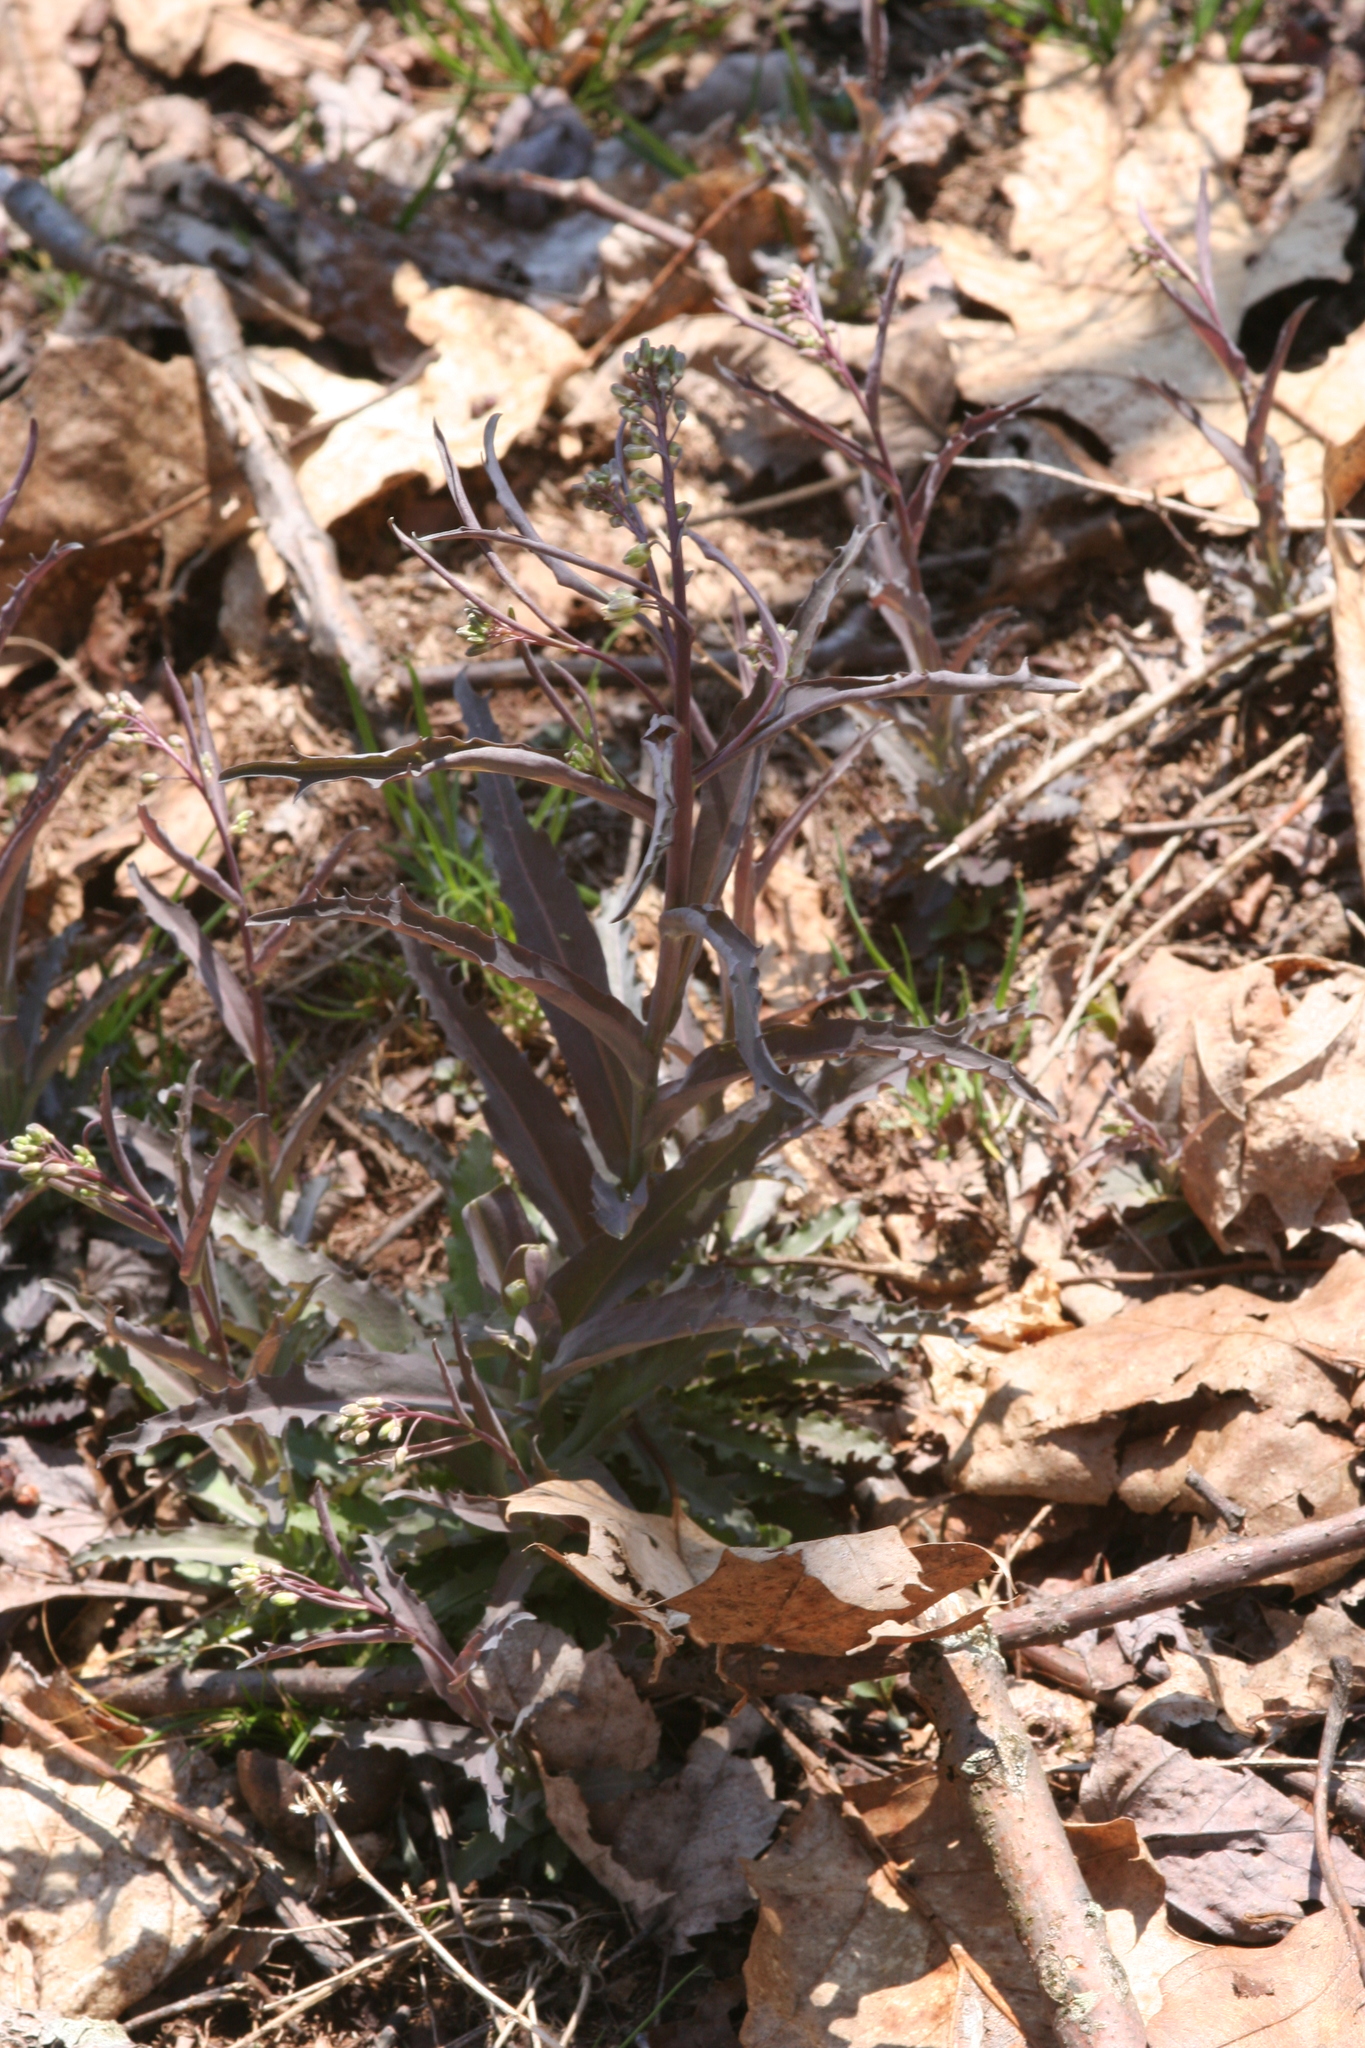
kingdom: Plantae
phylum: Tracheophyta
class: Magnoliopsida
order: Brassicales
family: Brassicaceae
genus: Borodinia
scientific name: Borodinia laevigata
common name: Smooth rockcress
